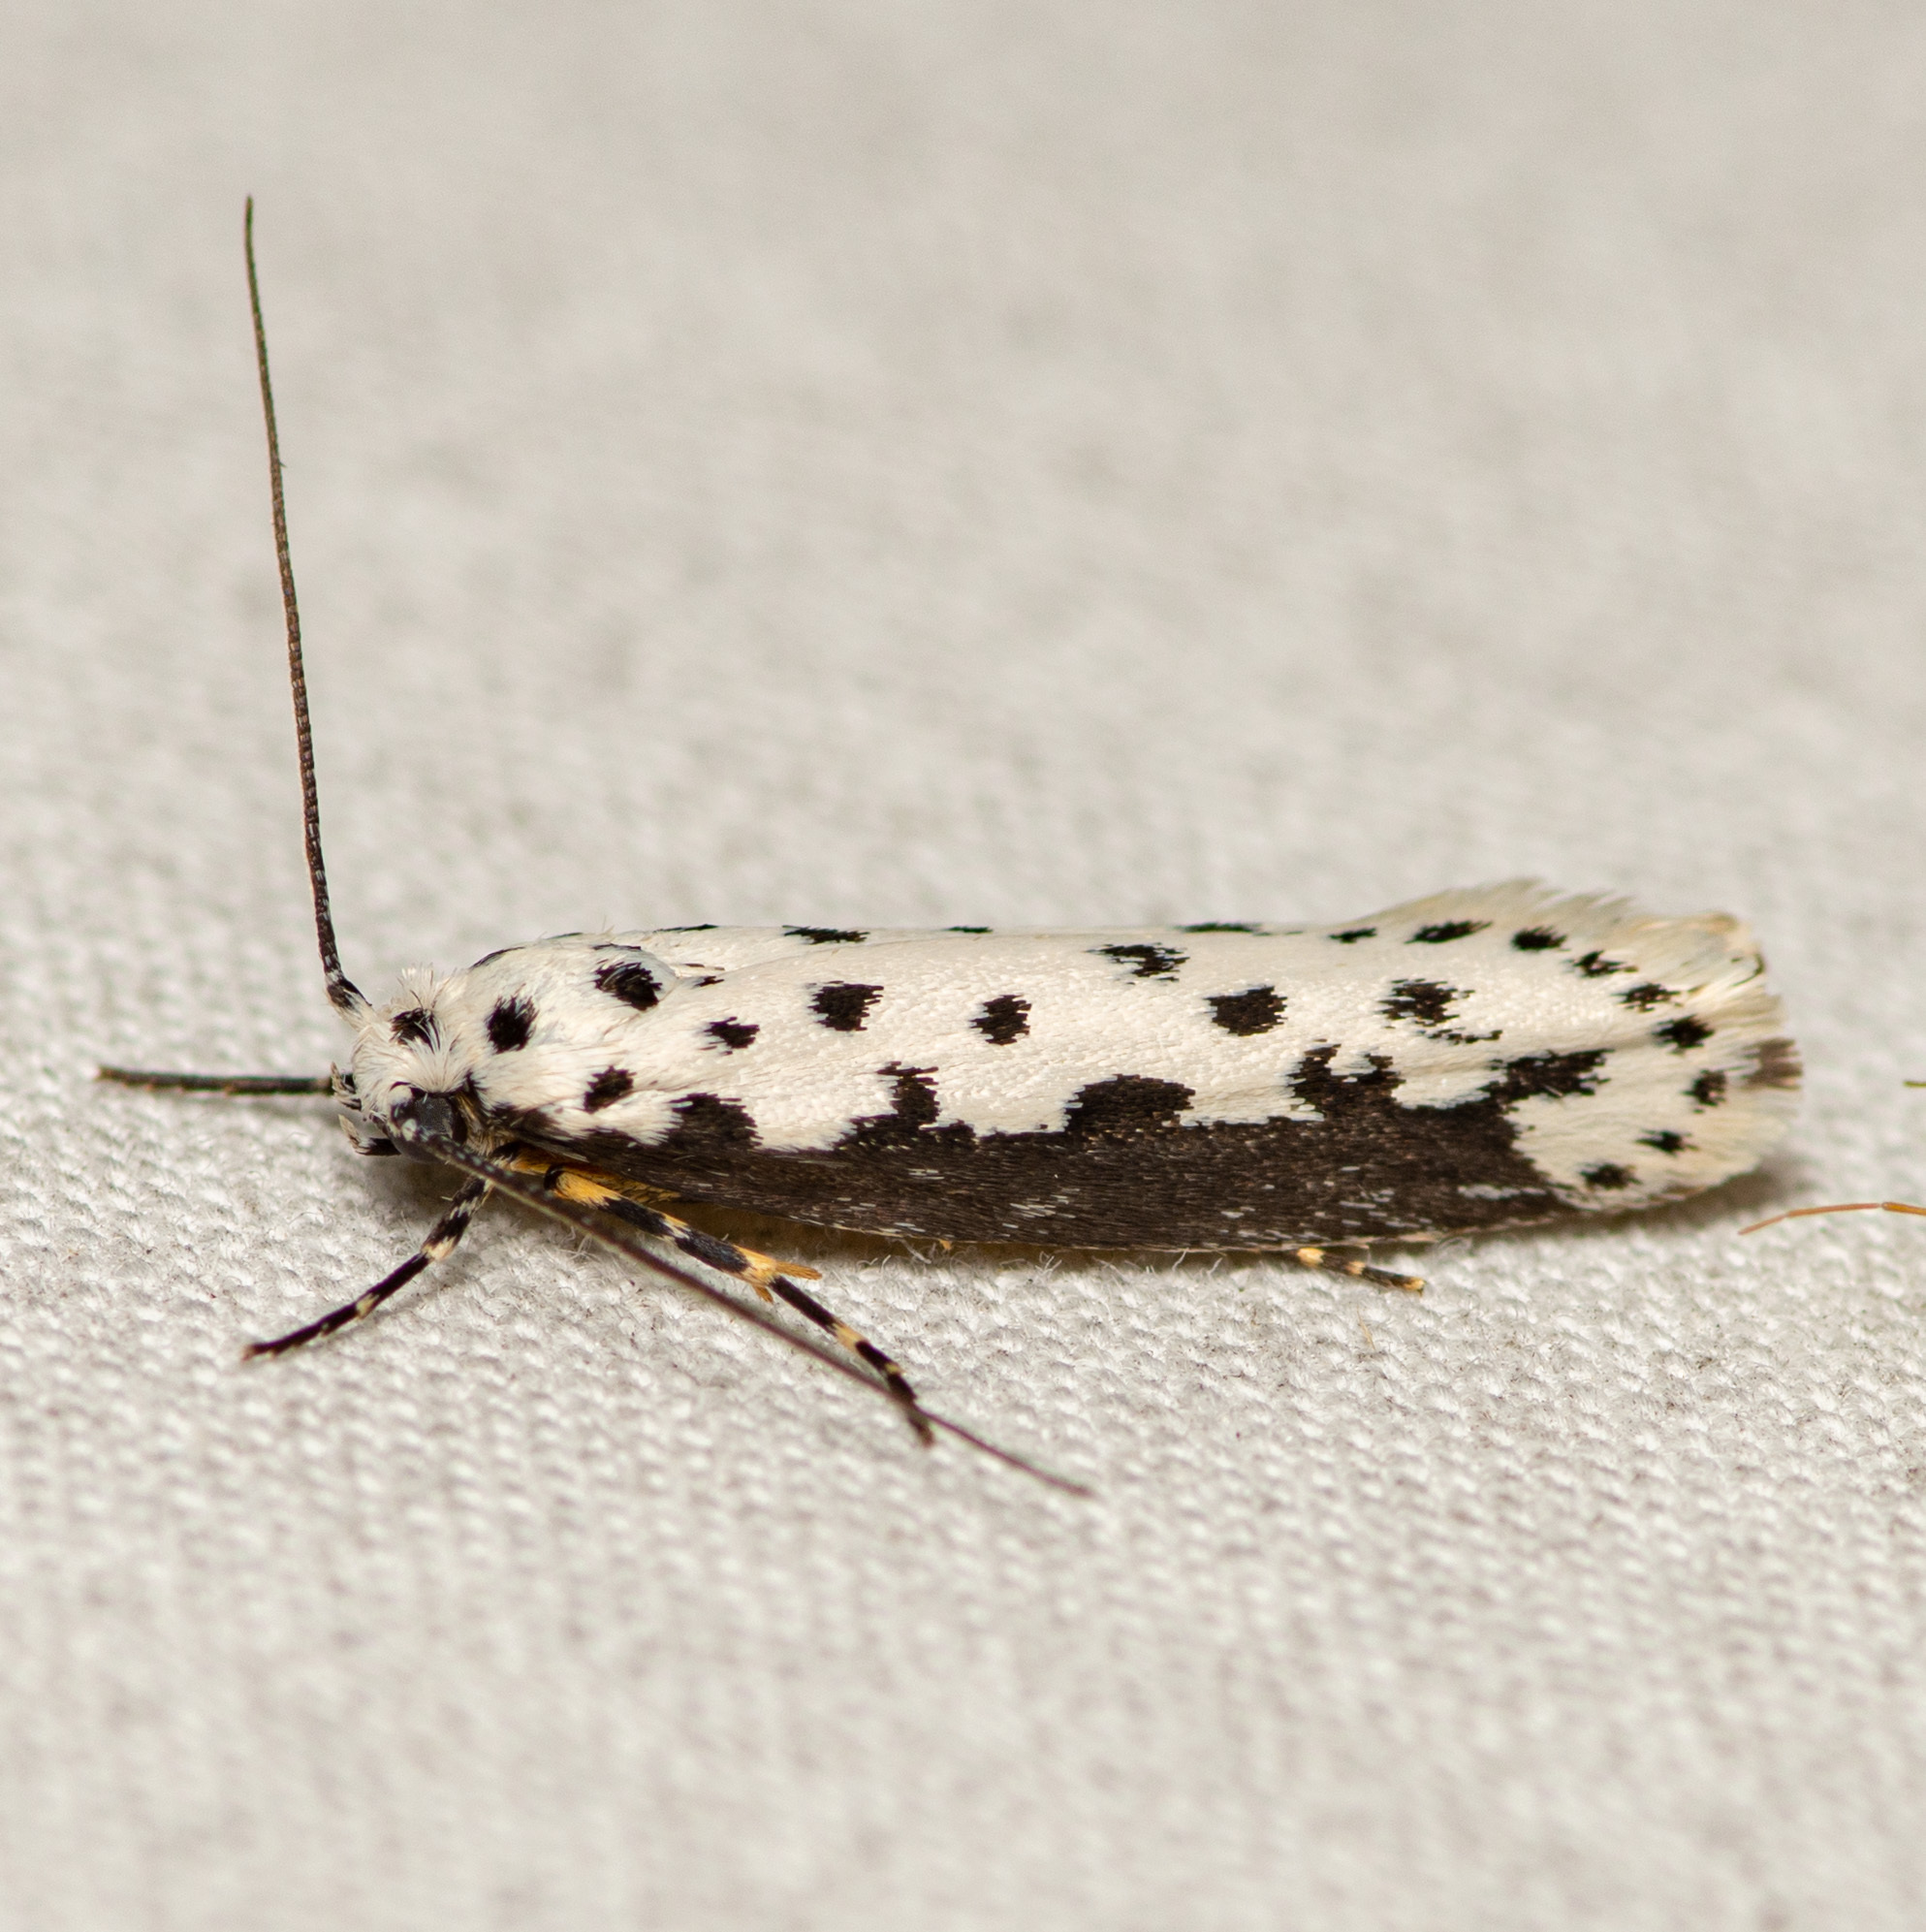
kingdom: Animalia
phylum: Arthropoda
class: Insecta
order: Lepidoptera
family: Ethmiidae
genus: Ethmia
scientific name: Ethmia hagenella
